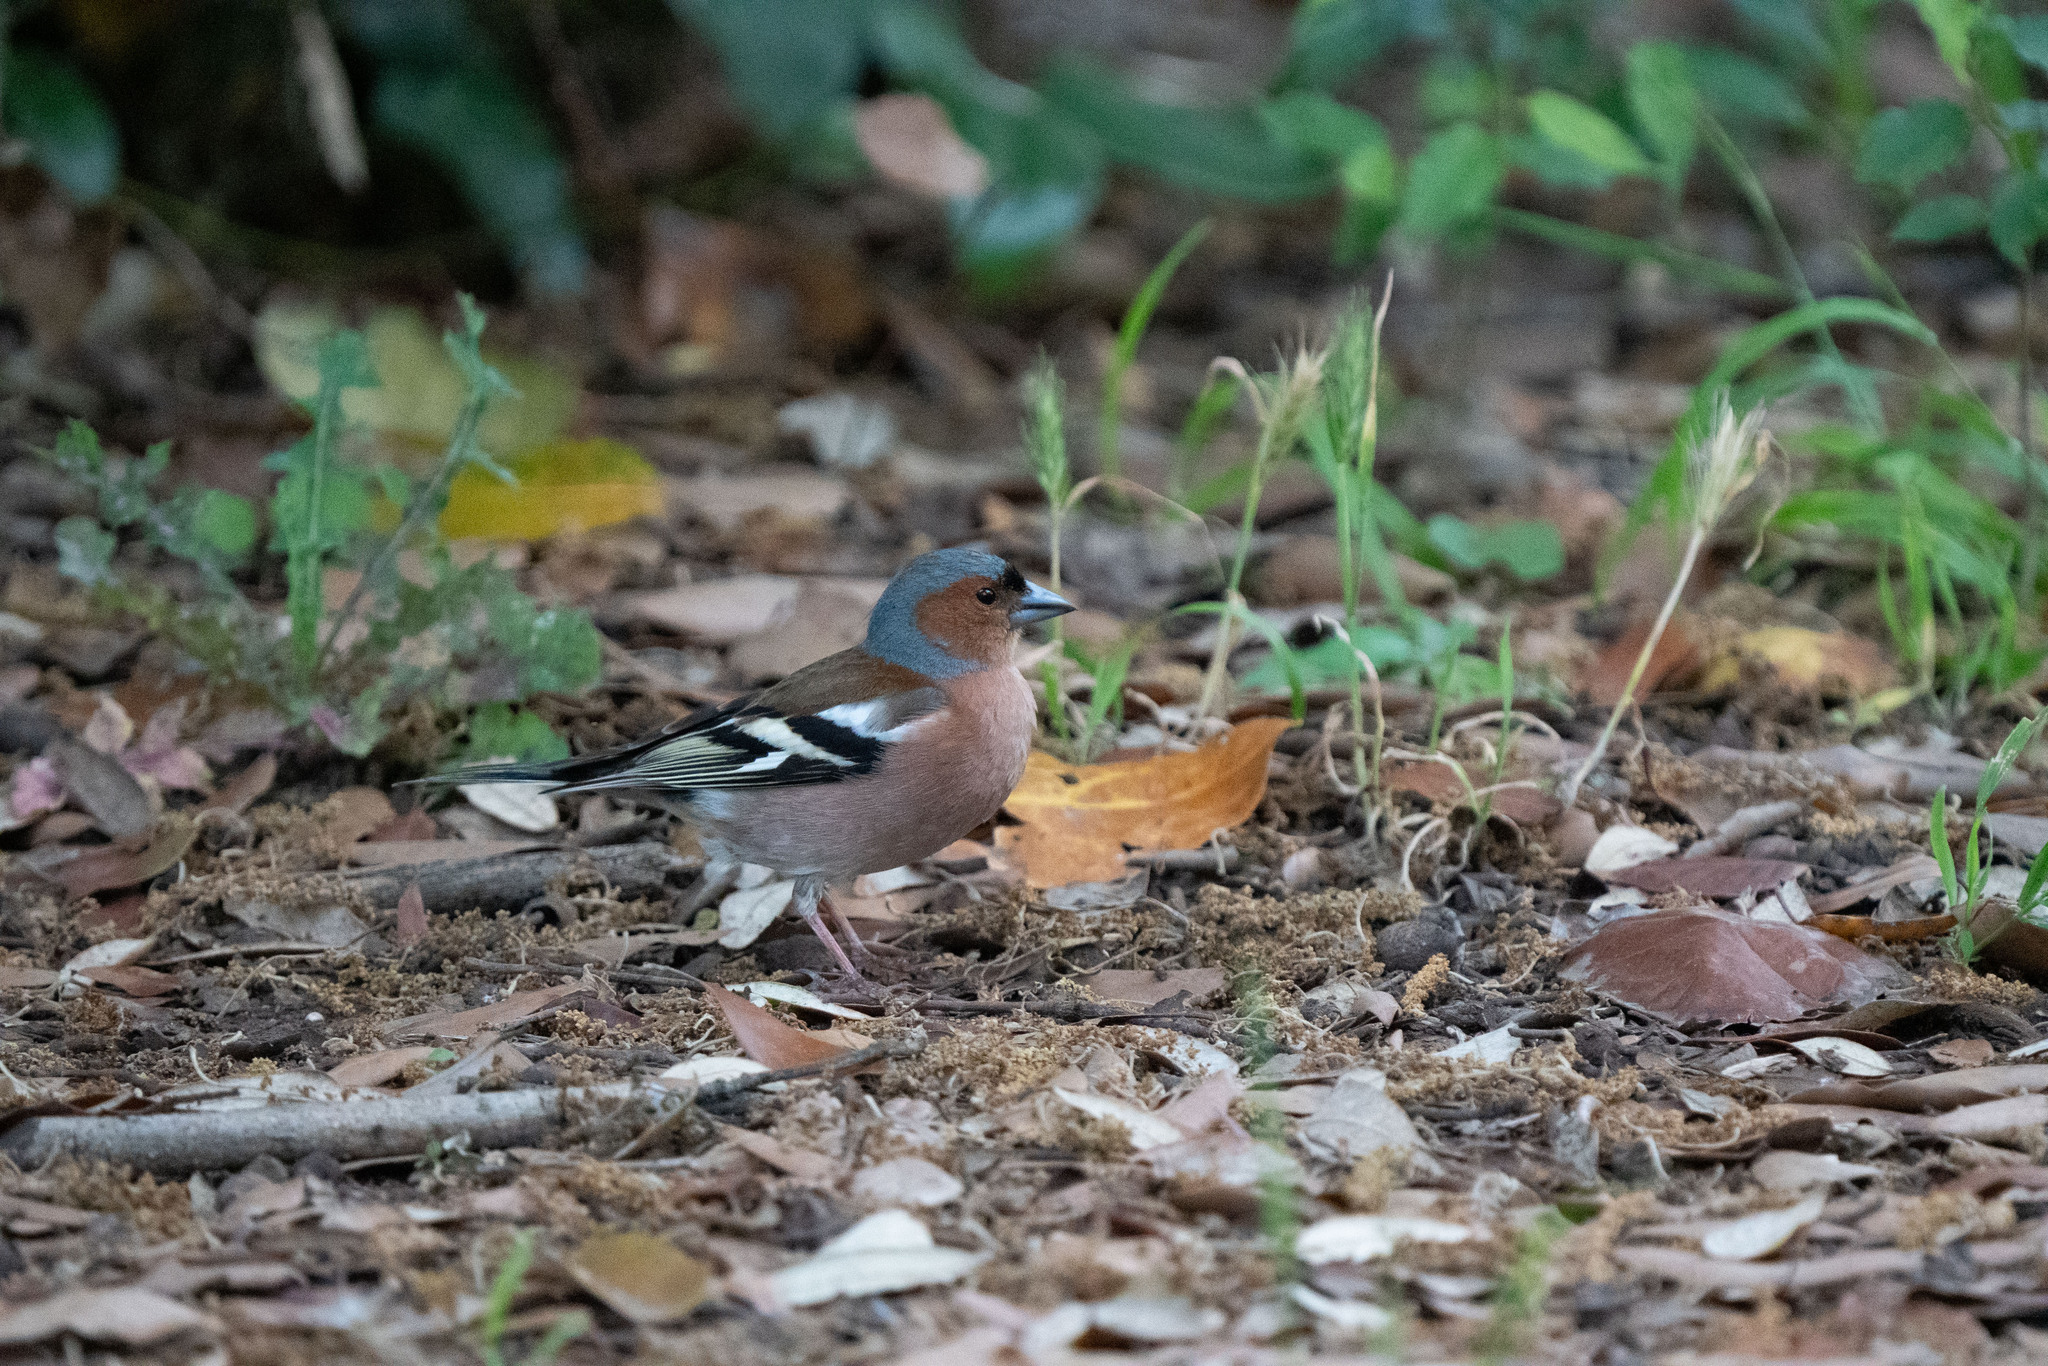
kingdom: Animalia
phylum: Chordata
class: Aves
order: Passeriformes
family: Fringillidae
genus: Fringilla
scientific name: Fringilla coelebs
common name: Common chaffinch
